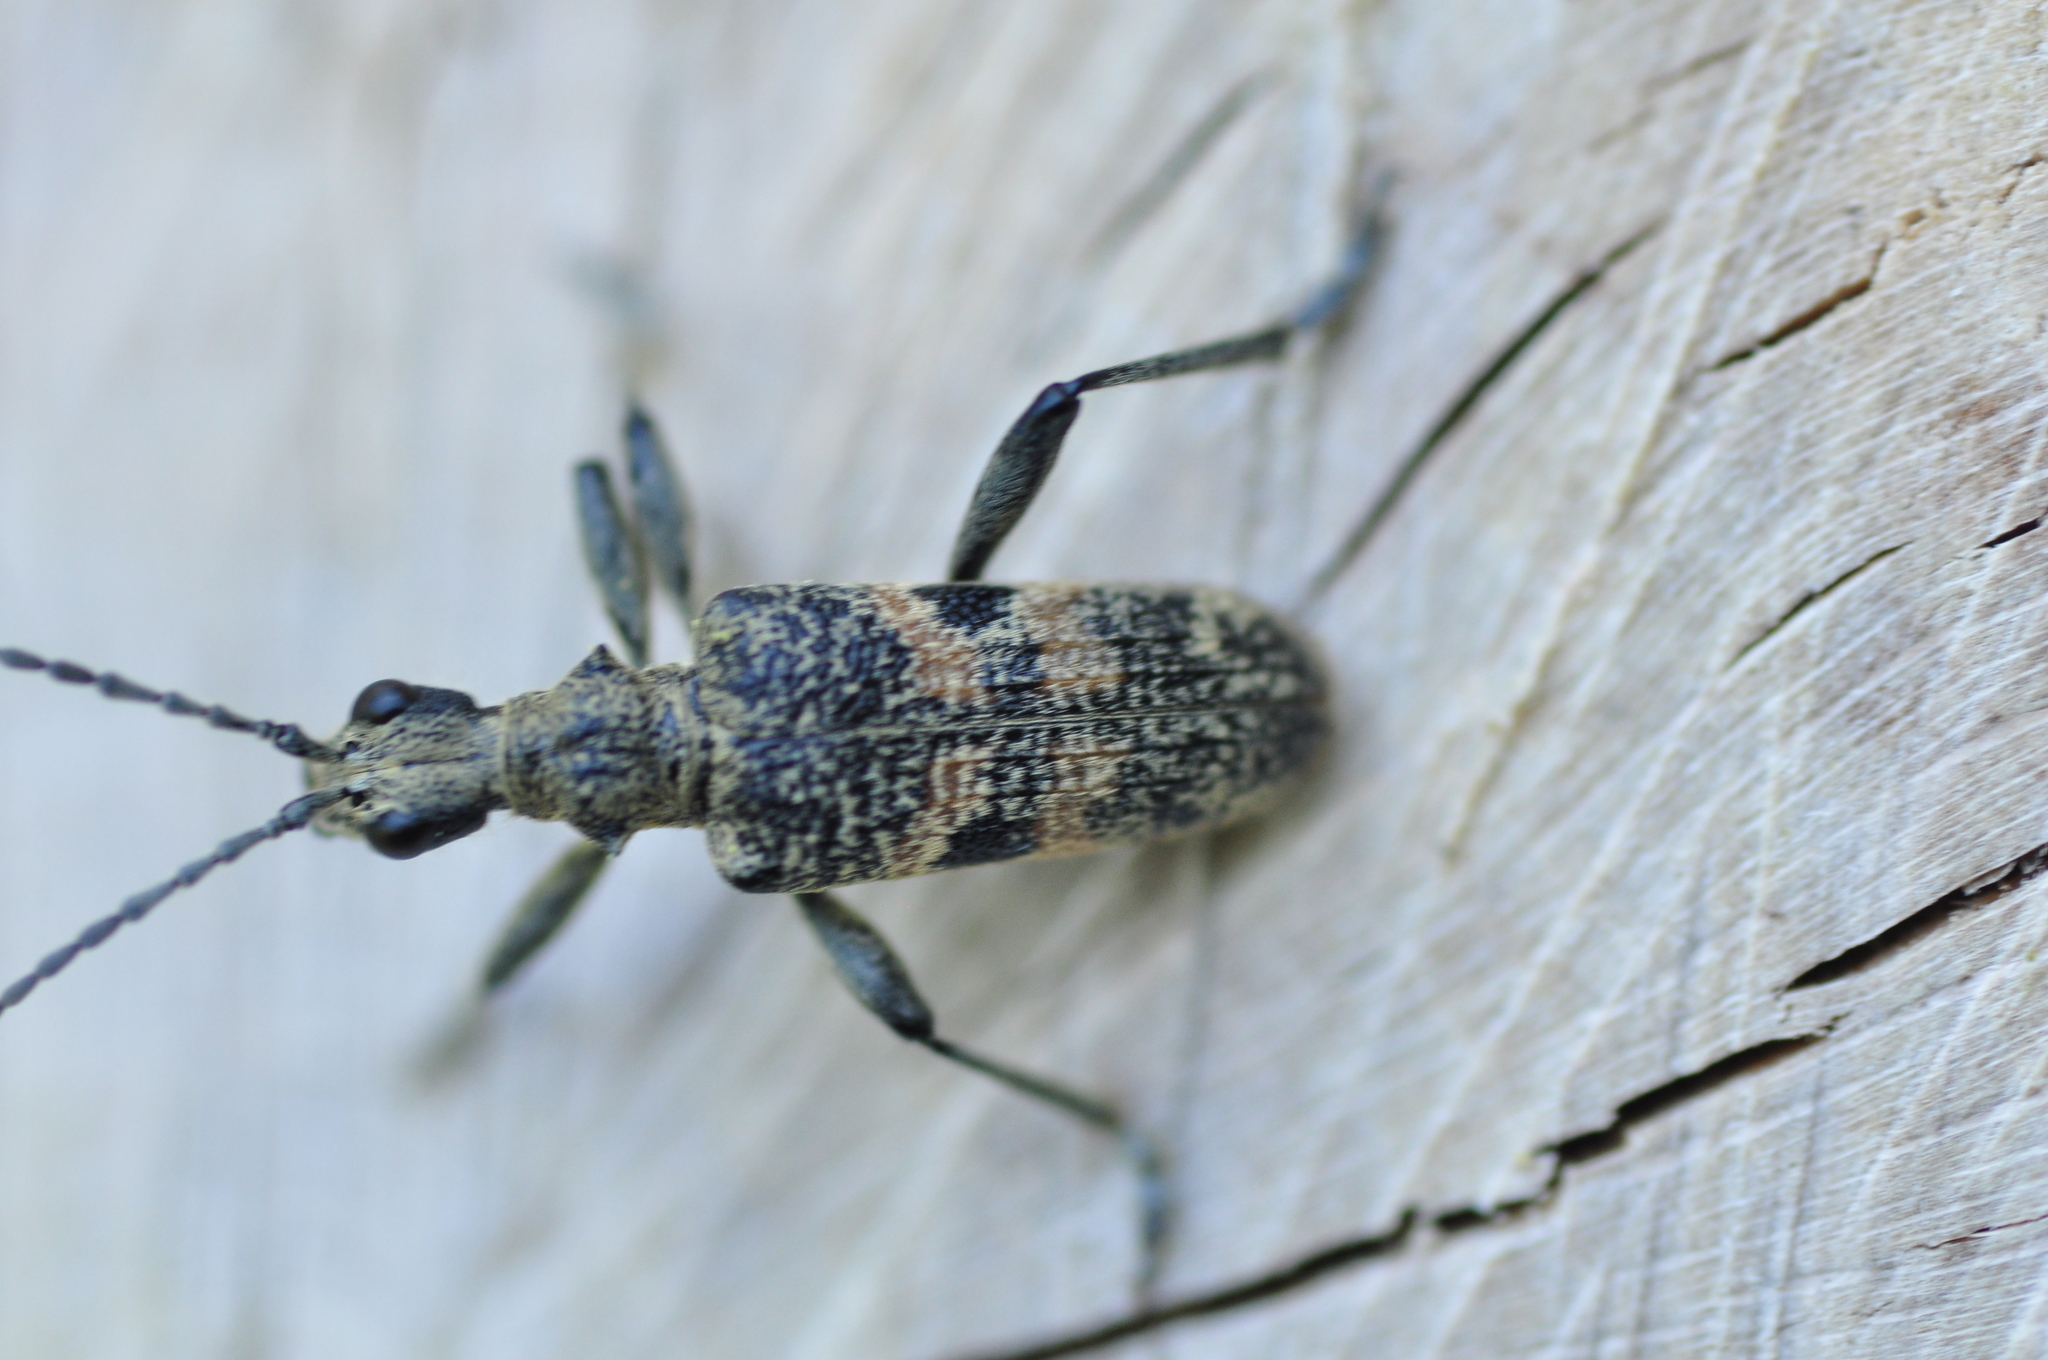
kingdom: Animalia
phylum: Arthropoda
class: Insecta
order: Coleoptera
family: Cerambycidae
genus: Rhagium
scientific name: Rhagium mordax
